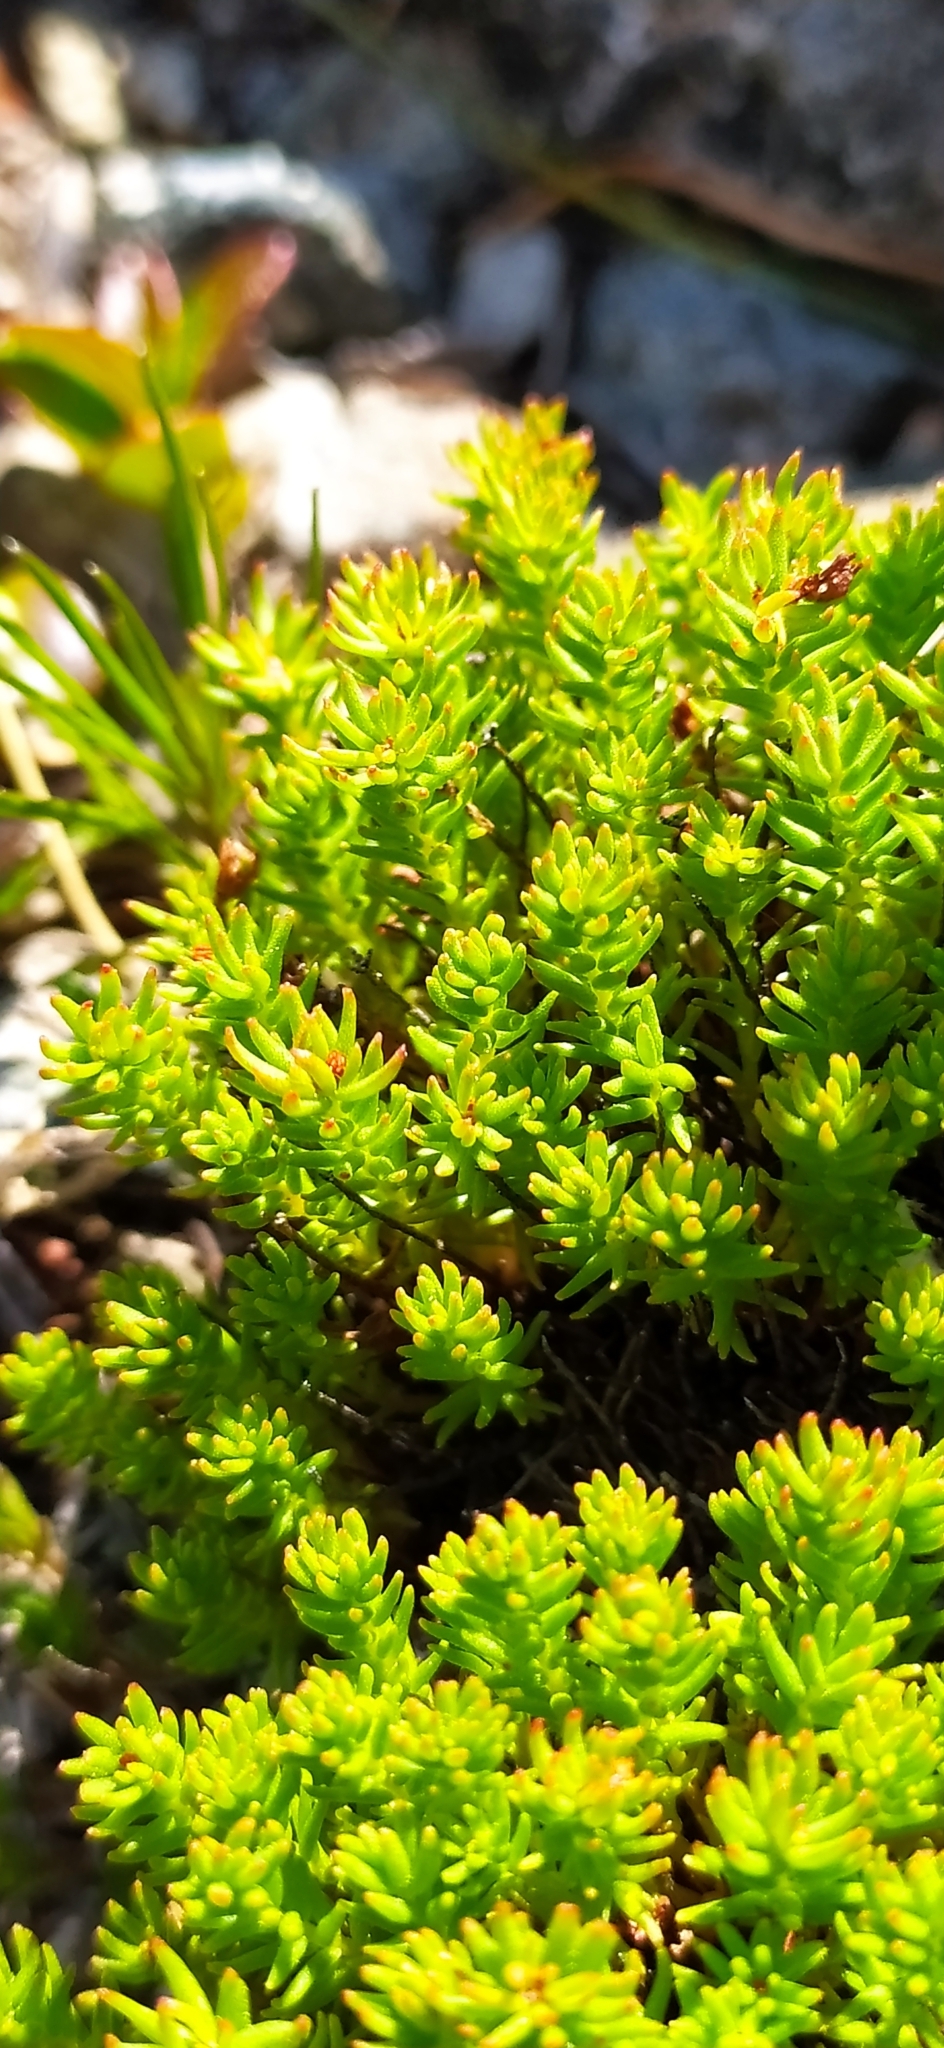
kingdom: Plantae
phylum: Tracheophyta
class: Magnoliopsida
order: Saxifragales
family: Crassulaceae
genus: Rhodiola
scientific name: Rhodiola quadrifida
